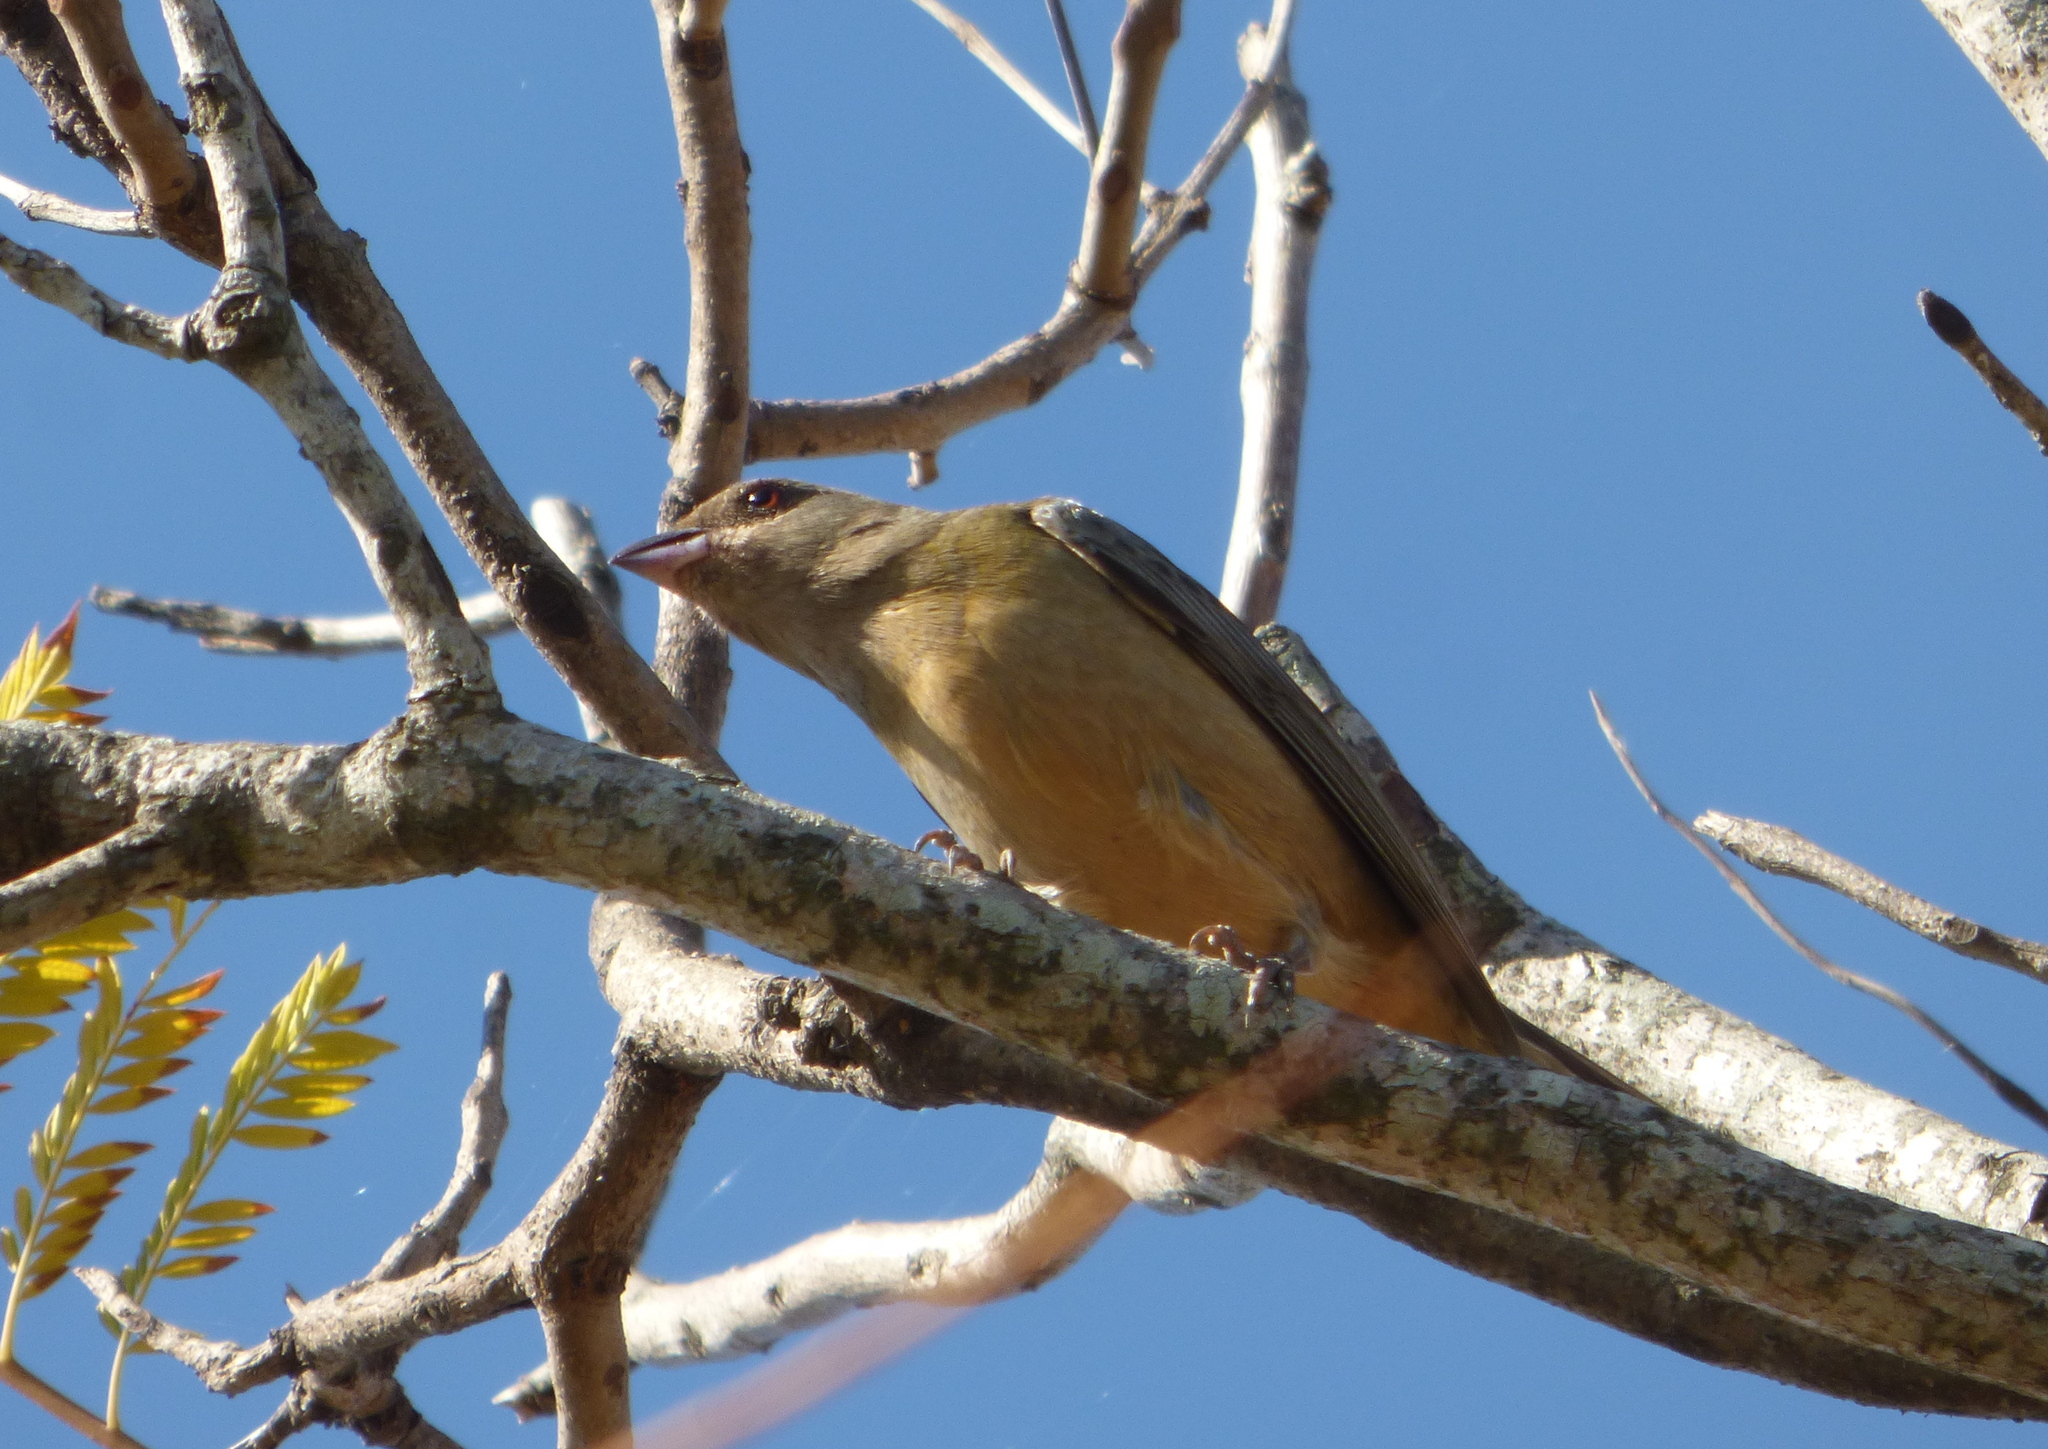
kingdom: Animalia
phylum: Chordata
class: Aves
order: Passeriformes
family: Thraupidae
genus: Rauenia
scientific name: Rauenia bonariensis
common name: Blue-and-yellow tanager
